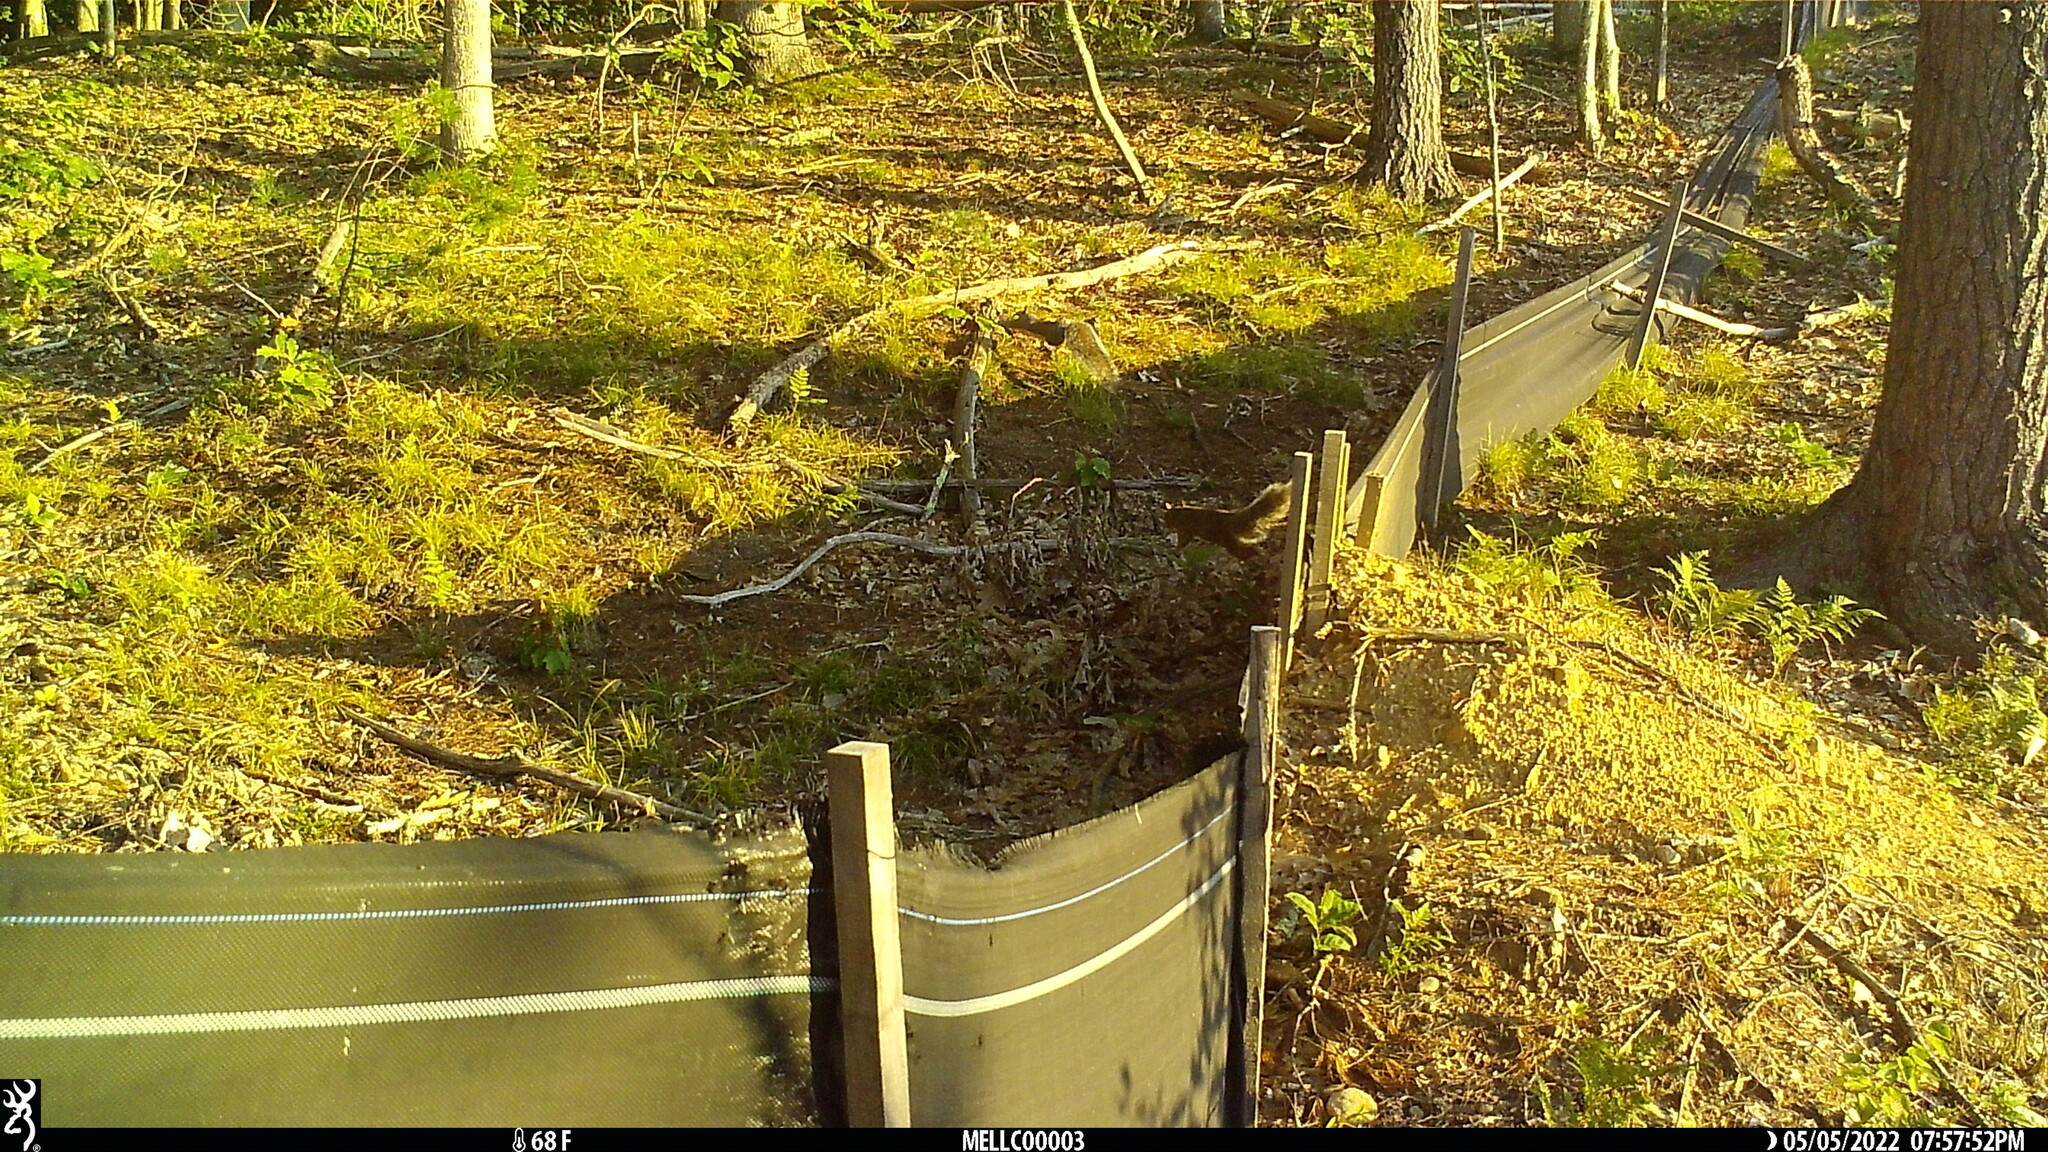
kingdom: Animalia
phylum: Chordata
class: Mammalia
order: Rodentia
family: Sciuridae
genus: Sciurus
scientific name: Sciurus carolinensis
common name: Eastern gray squirrel
